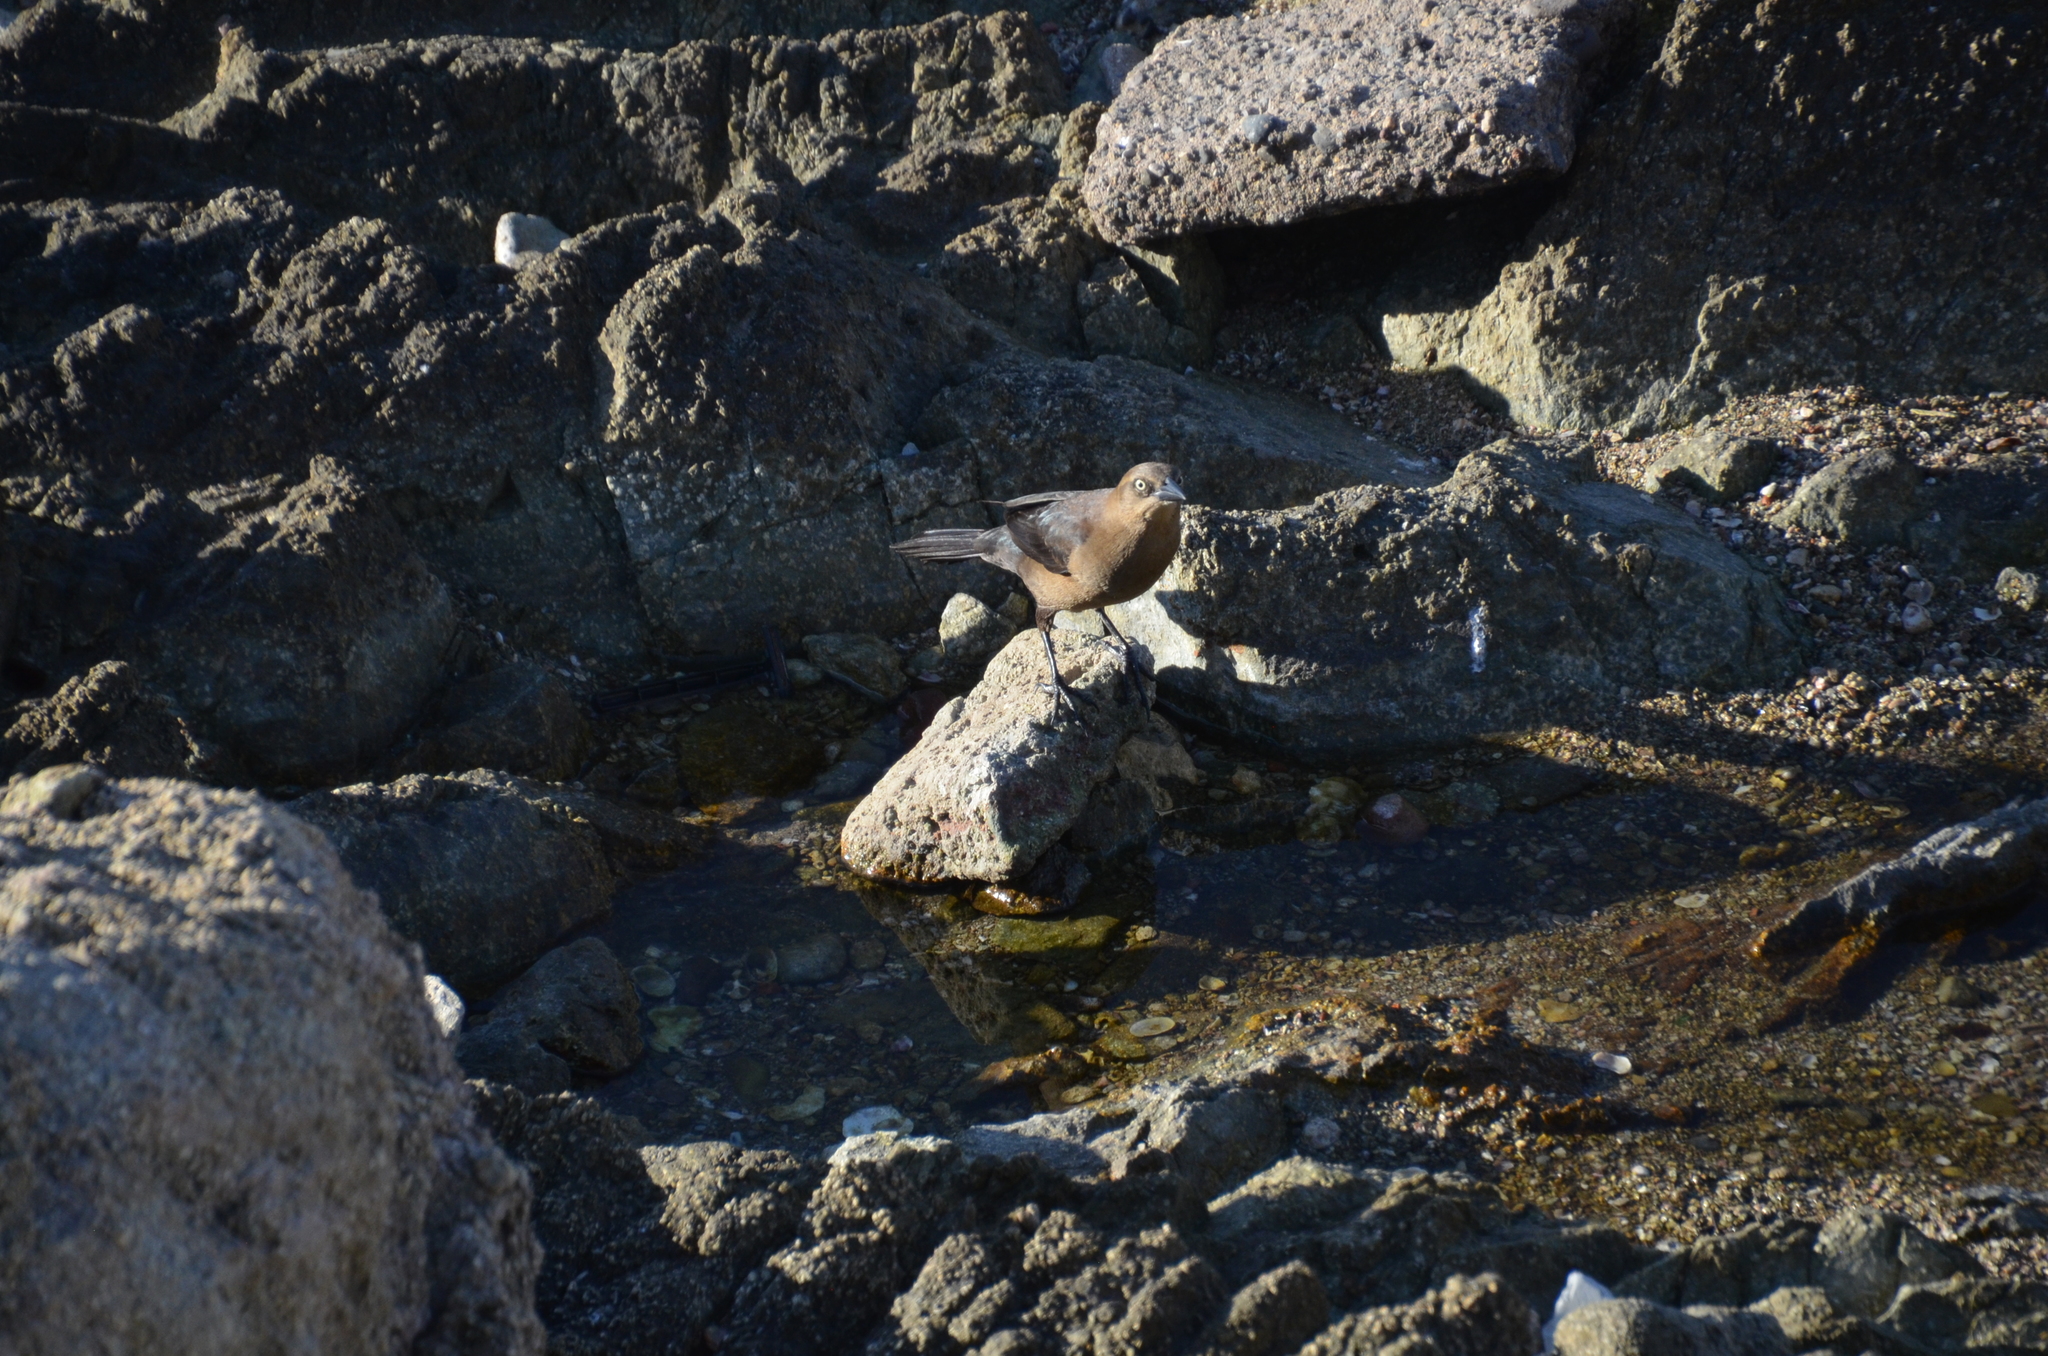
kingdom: Animalia
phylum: Chordata
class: Aves
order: Passeriformes
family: Icteridae
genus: Quiscalus
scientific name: Quiscalus mexicanus
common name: Great-tailed grackle
